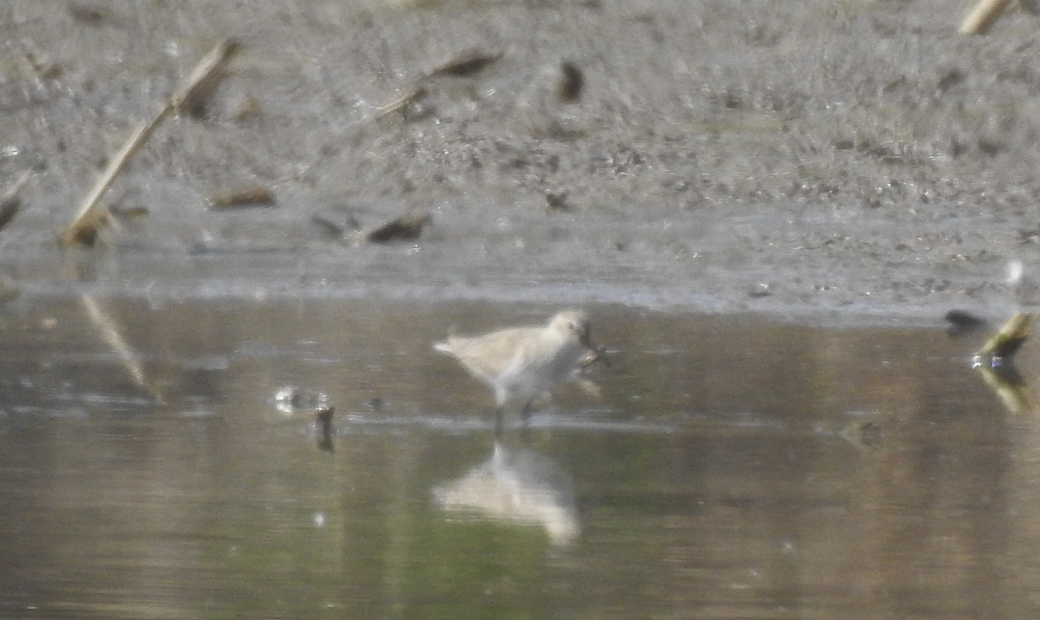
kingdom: Animalia
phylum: Chordata
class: Aves
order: Charadriiformes
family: Scolopacidae
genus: Calidris
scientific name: Calidris alpina
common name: Dunlin
